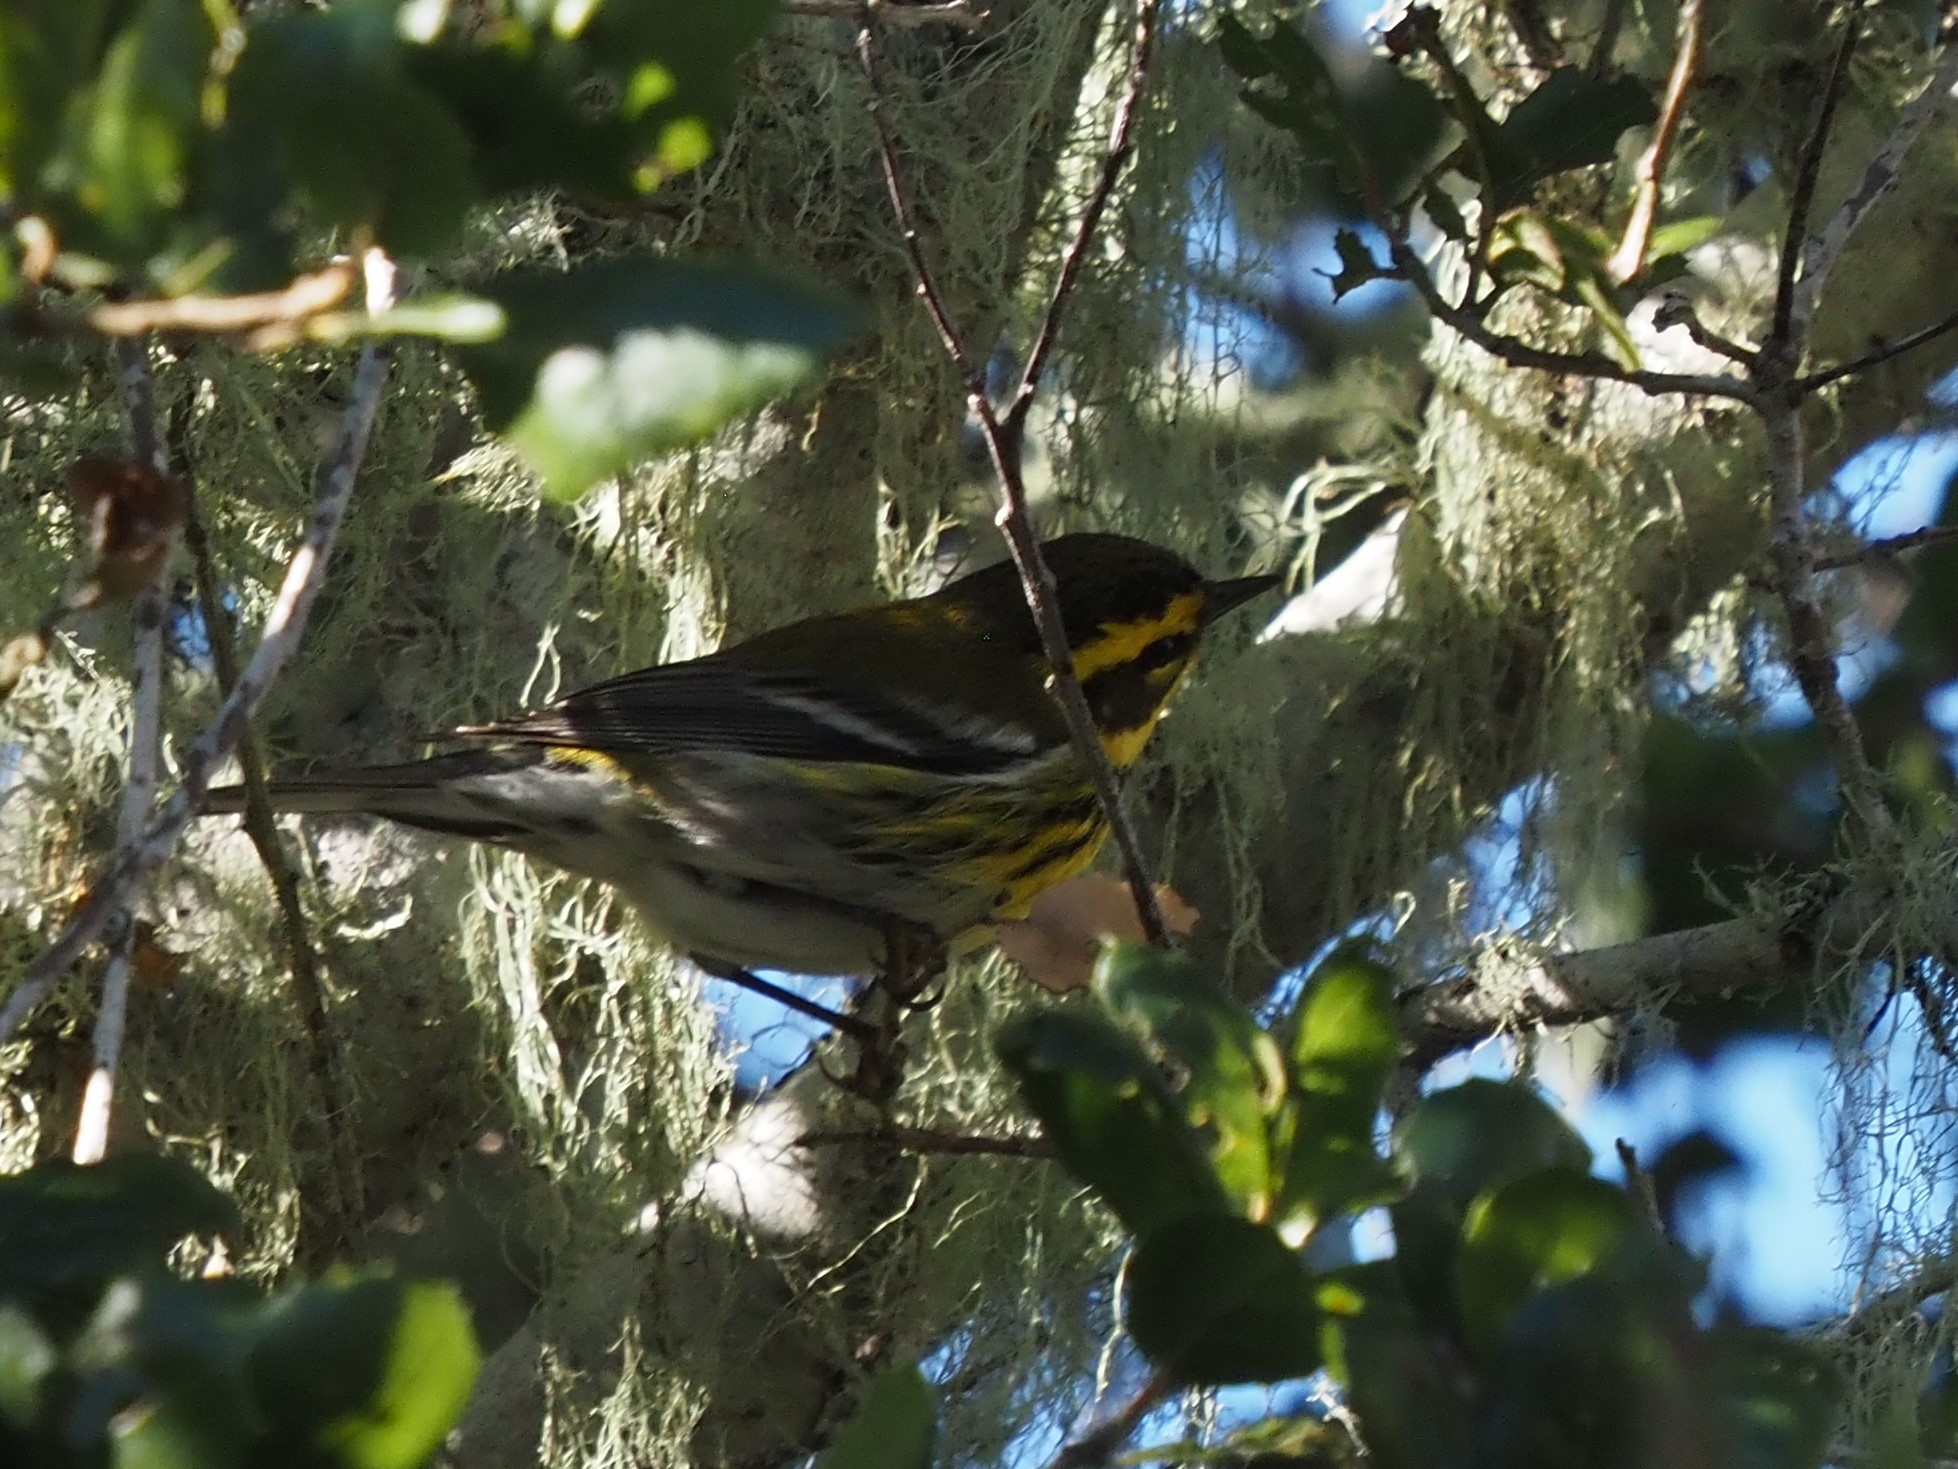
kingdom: Animalia
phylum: Chordata
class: Aves
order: Passeriformes
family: Parulidae
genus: Setophaga
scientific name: Setophaga townsendi
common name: Townsend's warbler
